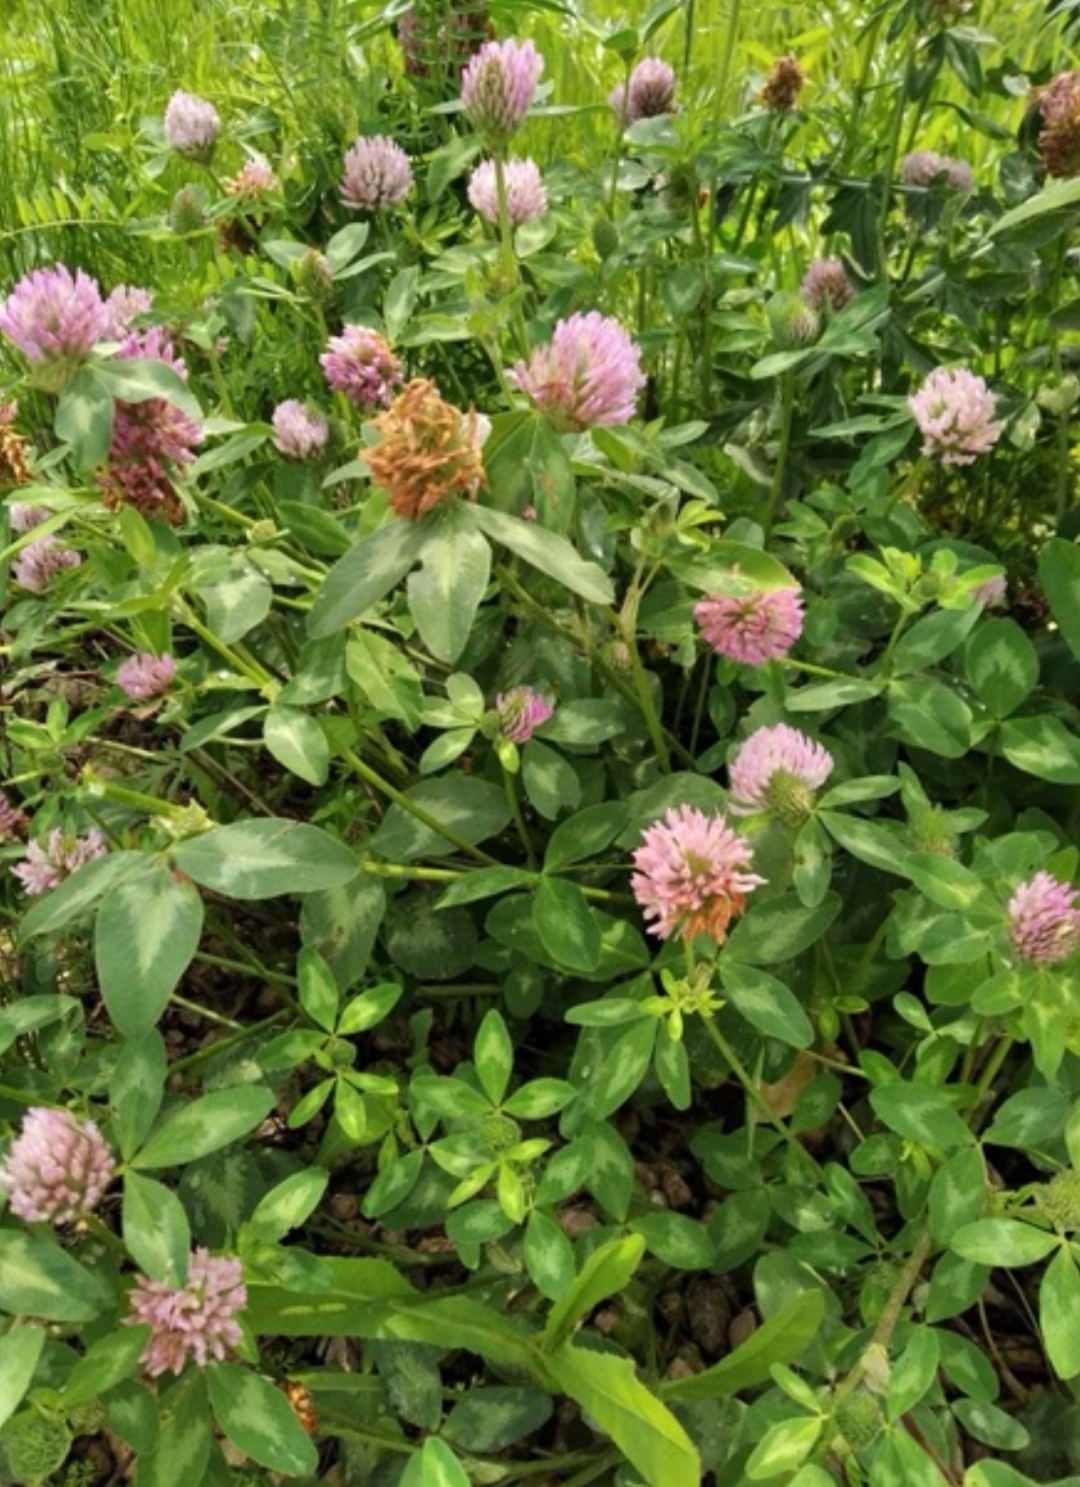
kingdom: Plantae
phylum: Tracheophyta
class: Magnoliopsida
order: Fabales
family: Fabaceae
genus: Trifolium
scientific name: Trifolium pratense
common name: Red clover
